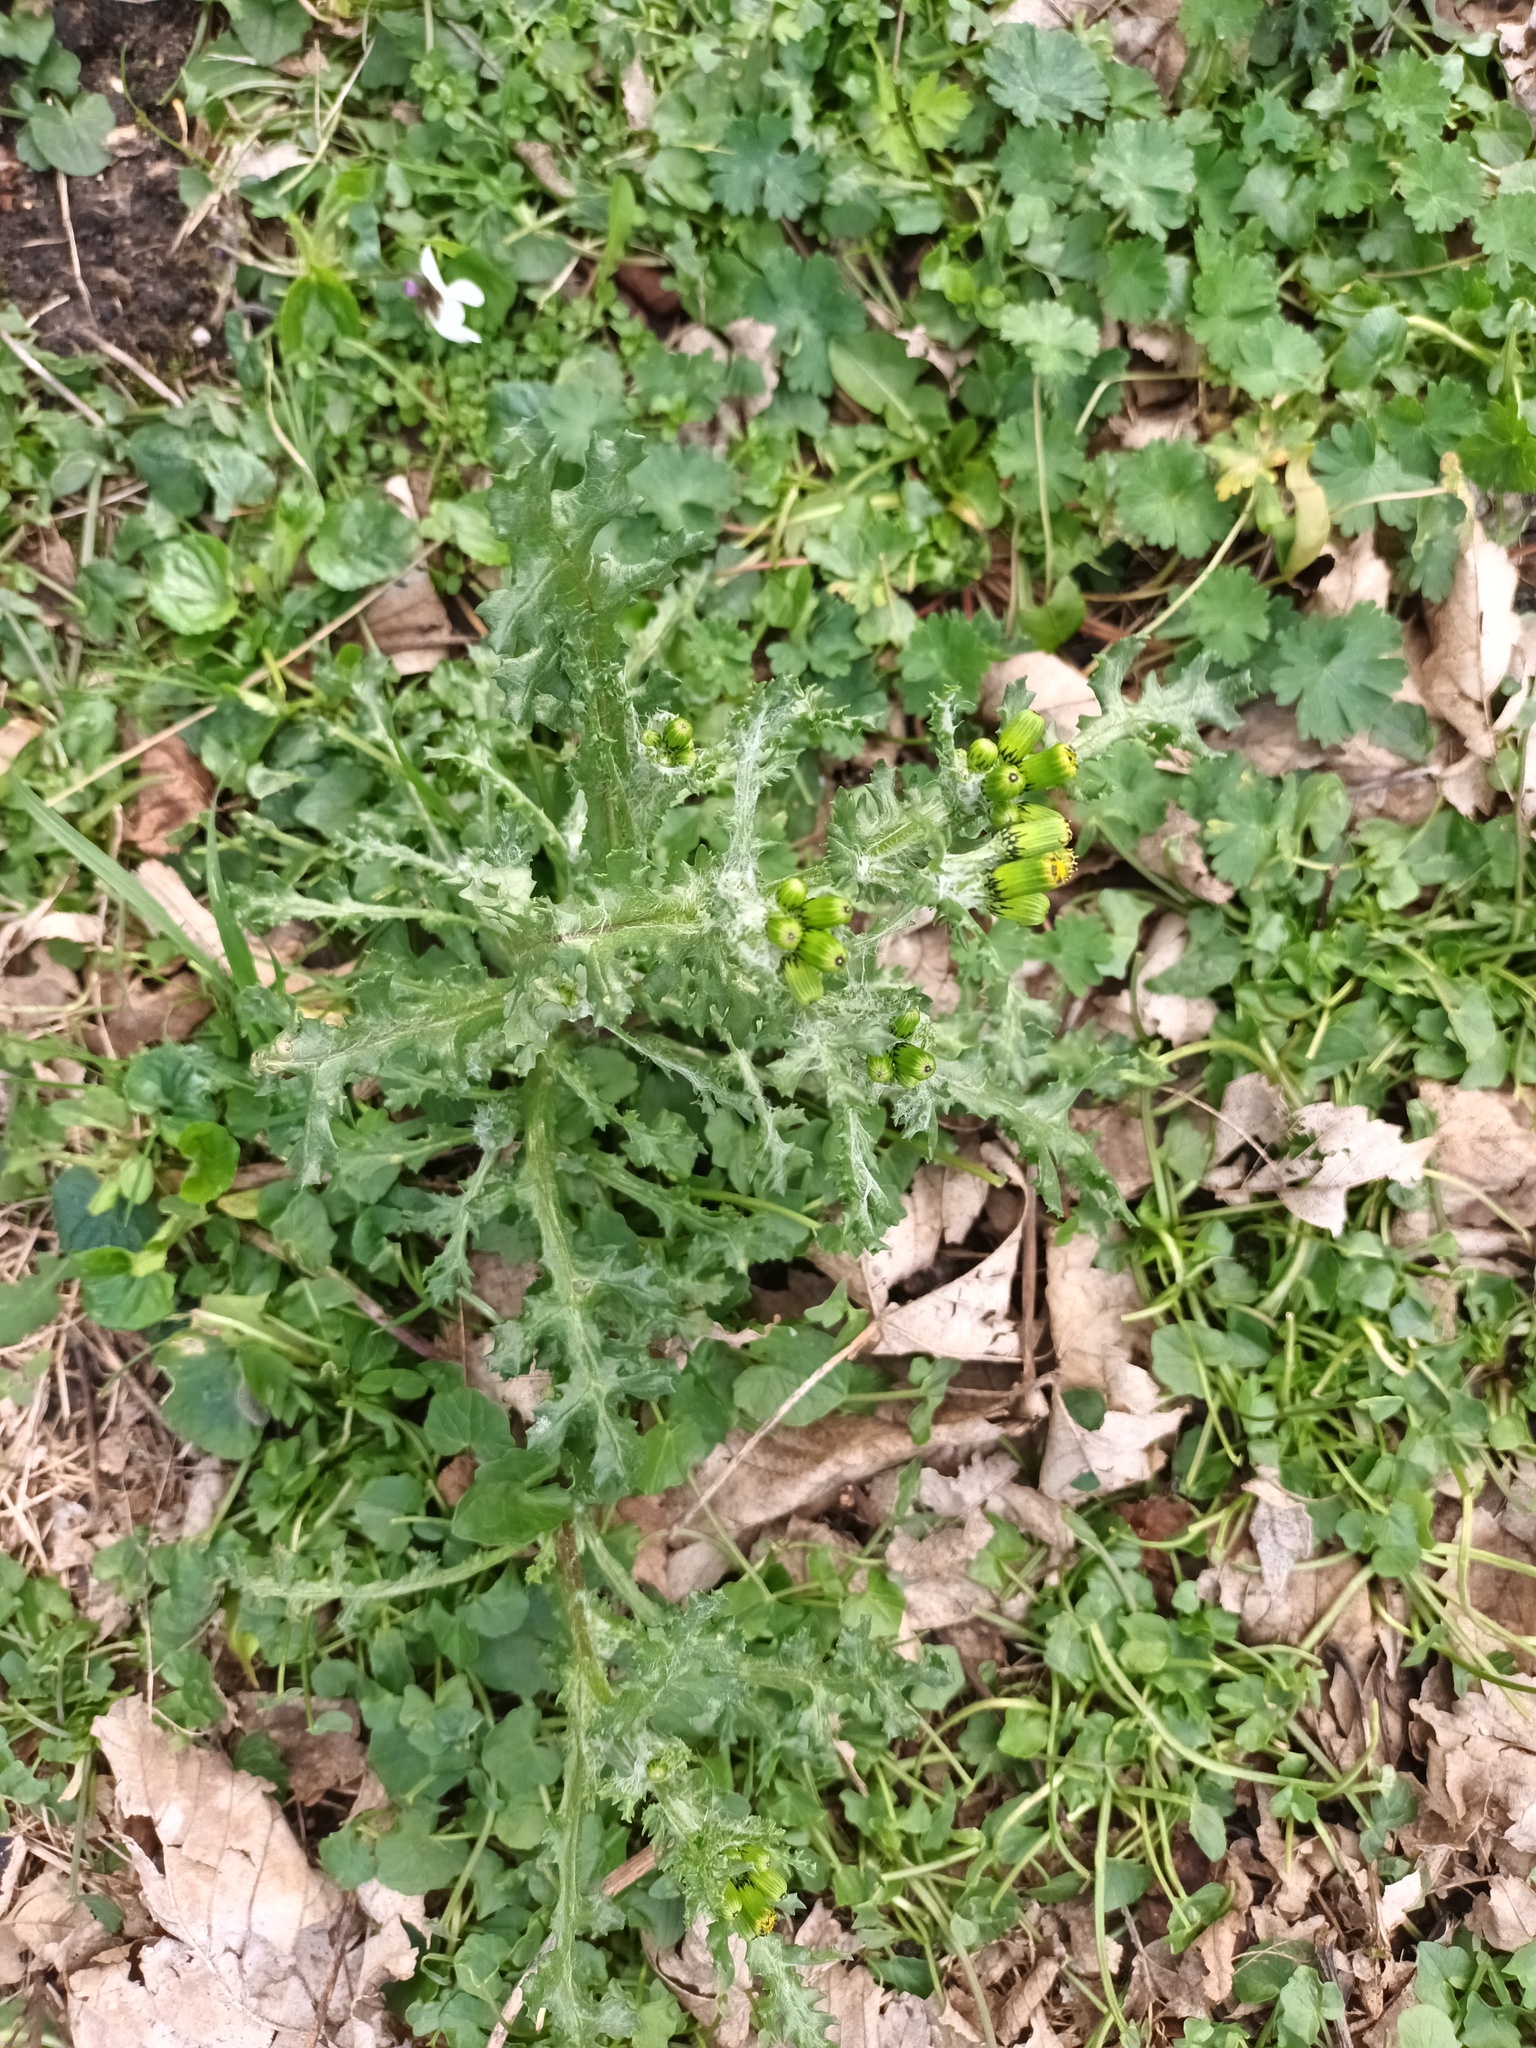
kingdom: Plantae
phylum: Tracheophyta
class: Magnoliopsida
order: Asterales
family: Asteraceae
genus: Senecio
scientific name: Senecio vulgaris
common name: Old-man-in-the-spring
